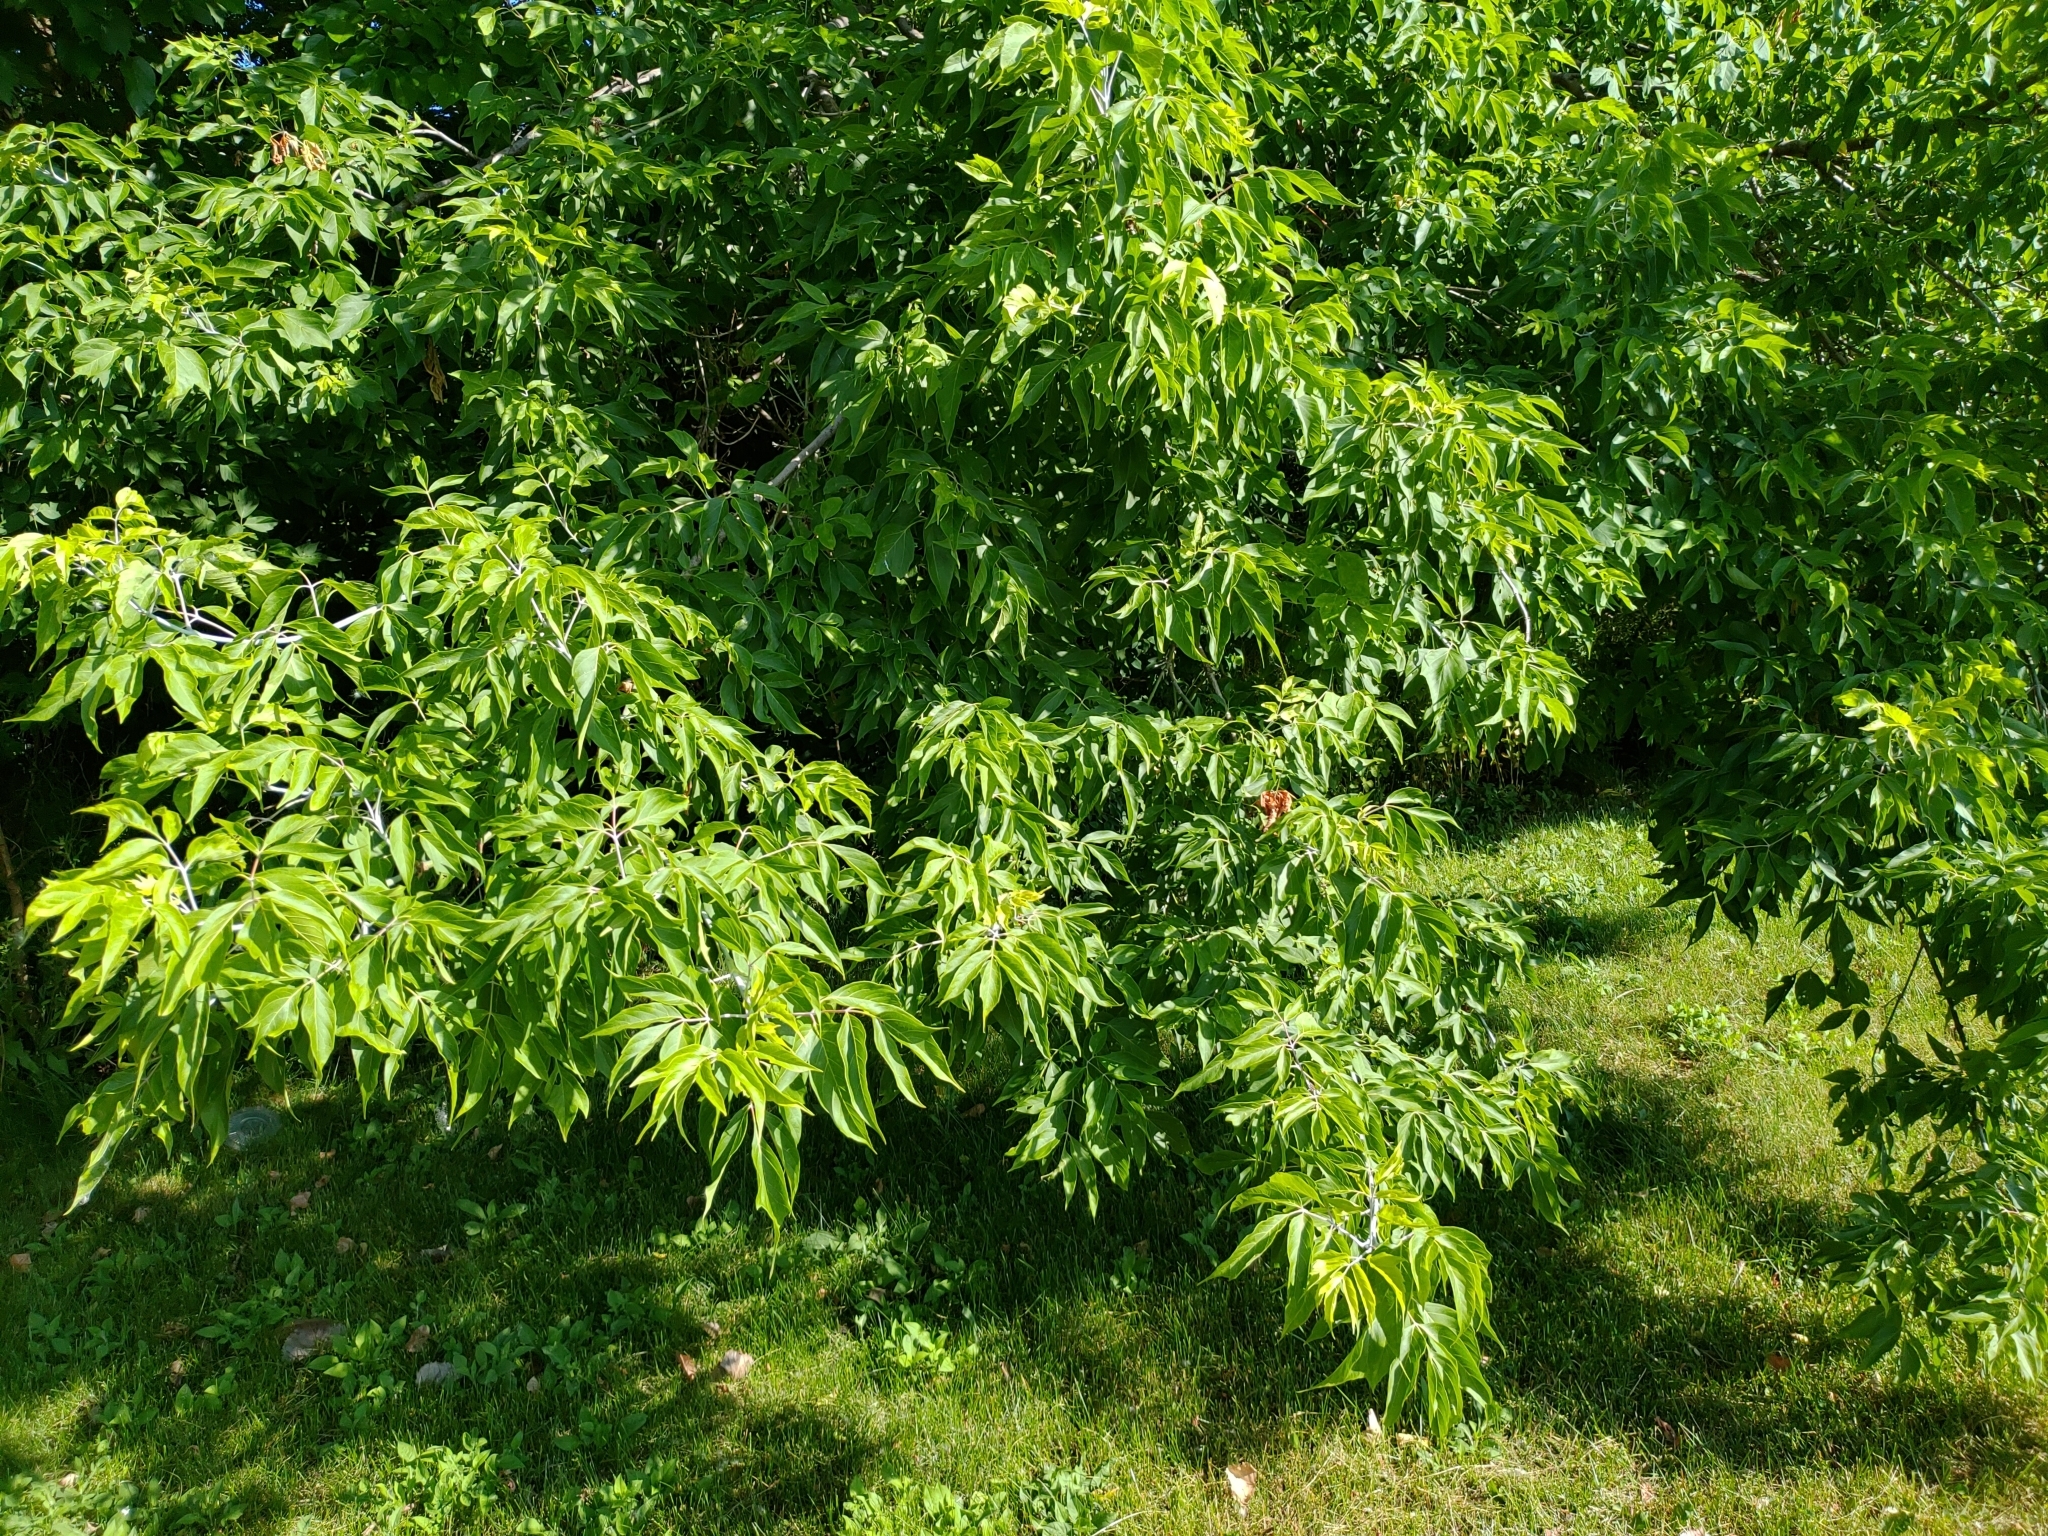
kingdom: Plantae
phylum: Tracheophyta
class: Magnoliopsida
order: Sapindales
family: Sapindaceae
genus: Acer
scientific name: Acer negundo
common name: Ashleaf maple
